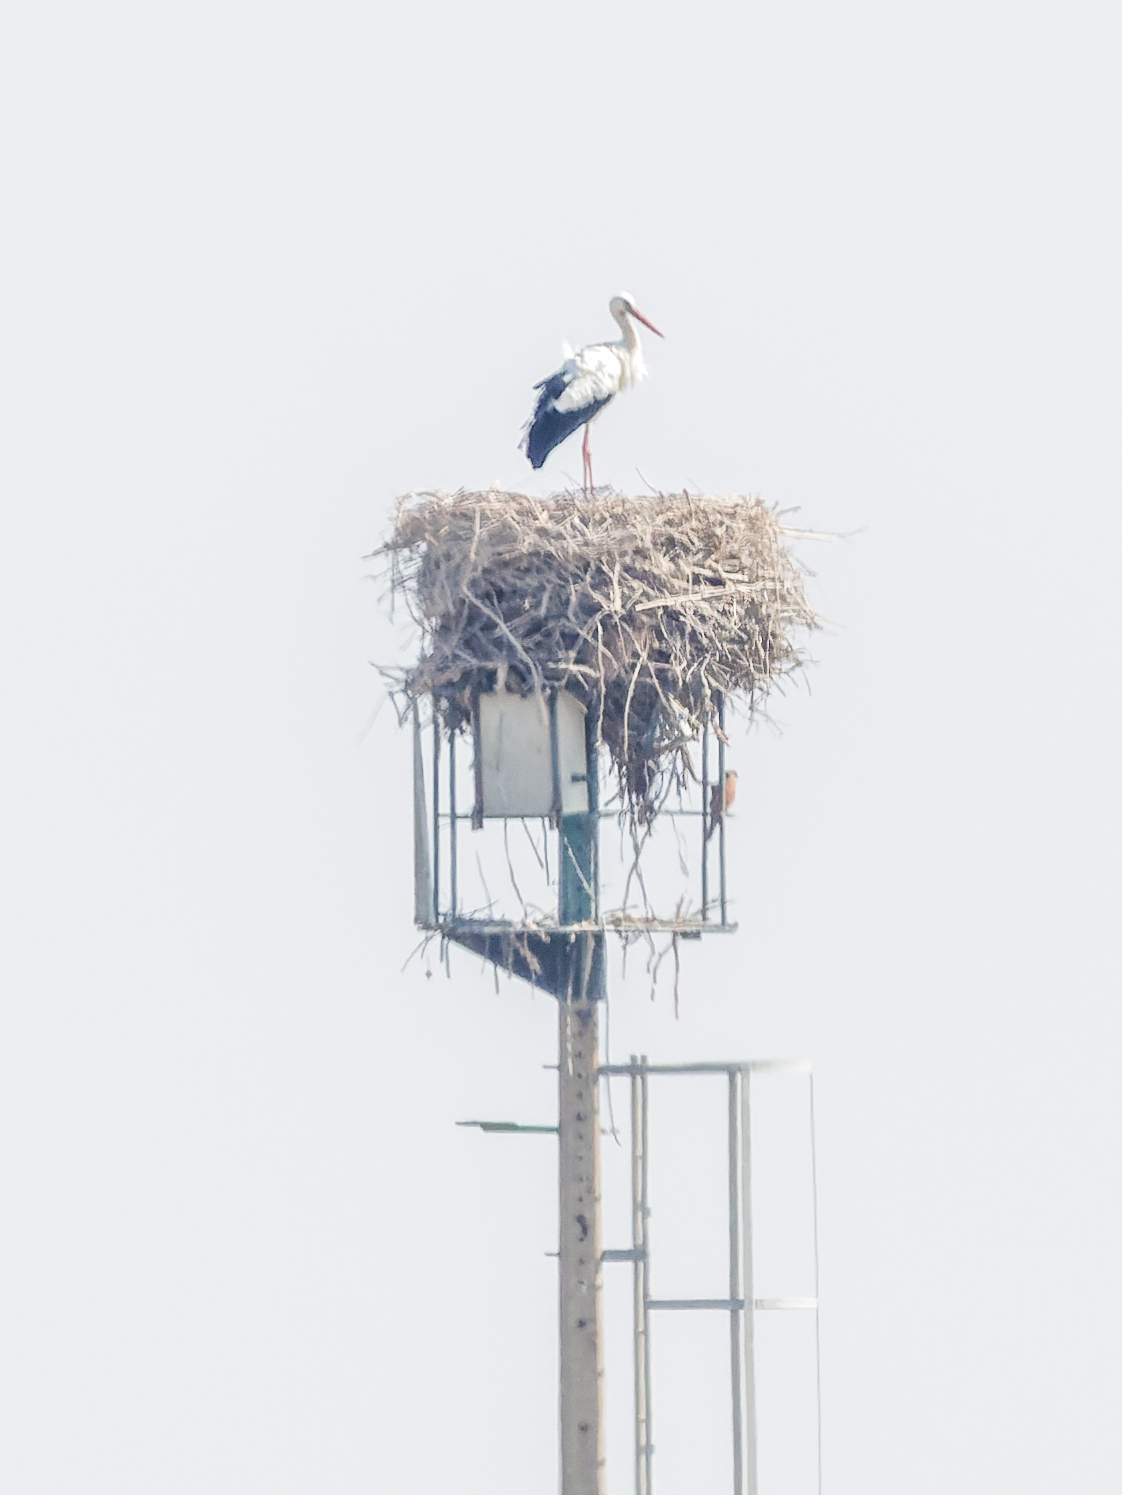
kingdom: Animalia
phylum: Chordata
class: Aves
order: Ciconiiformes
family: Ciconiidae
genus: Ciconia
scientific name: Ciconia ciconia
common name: White stork
